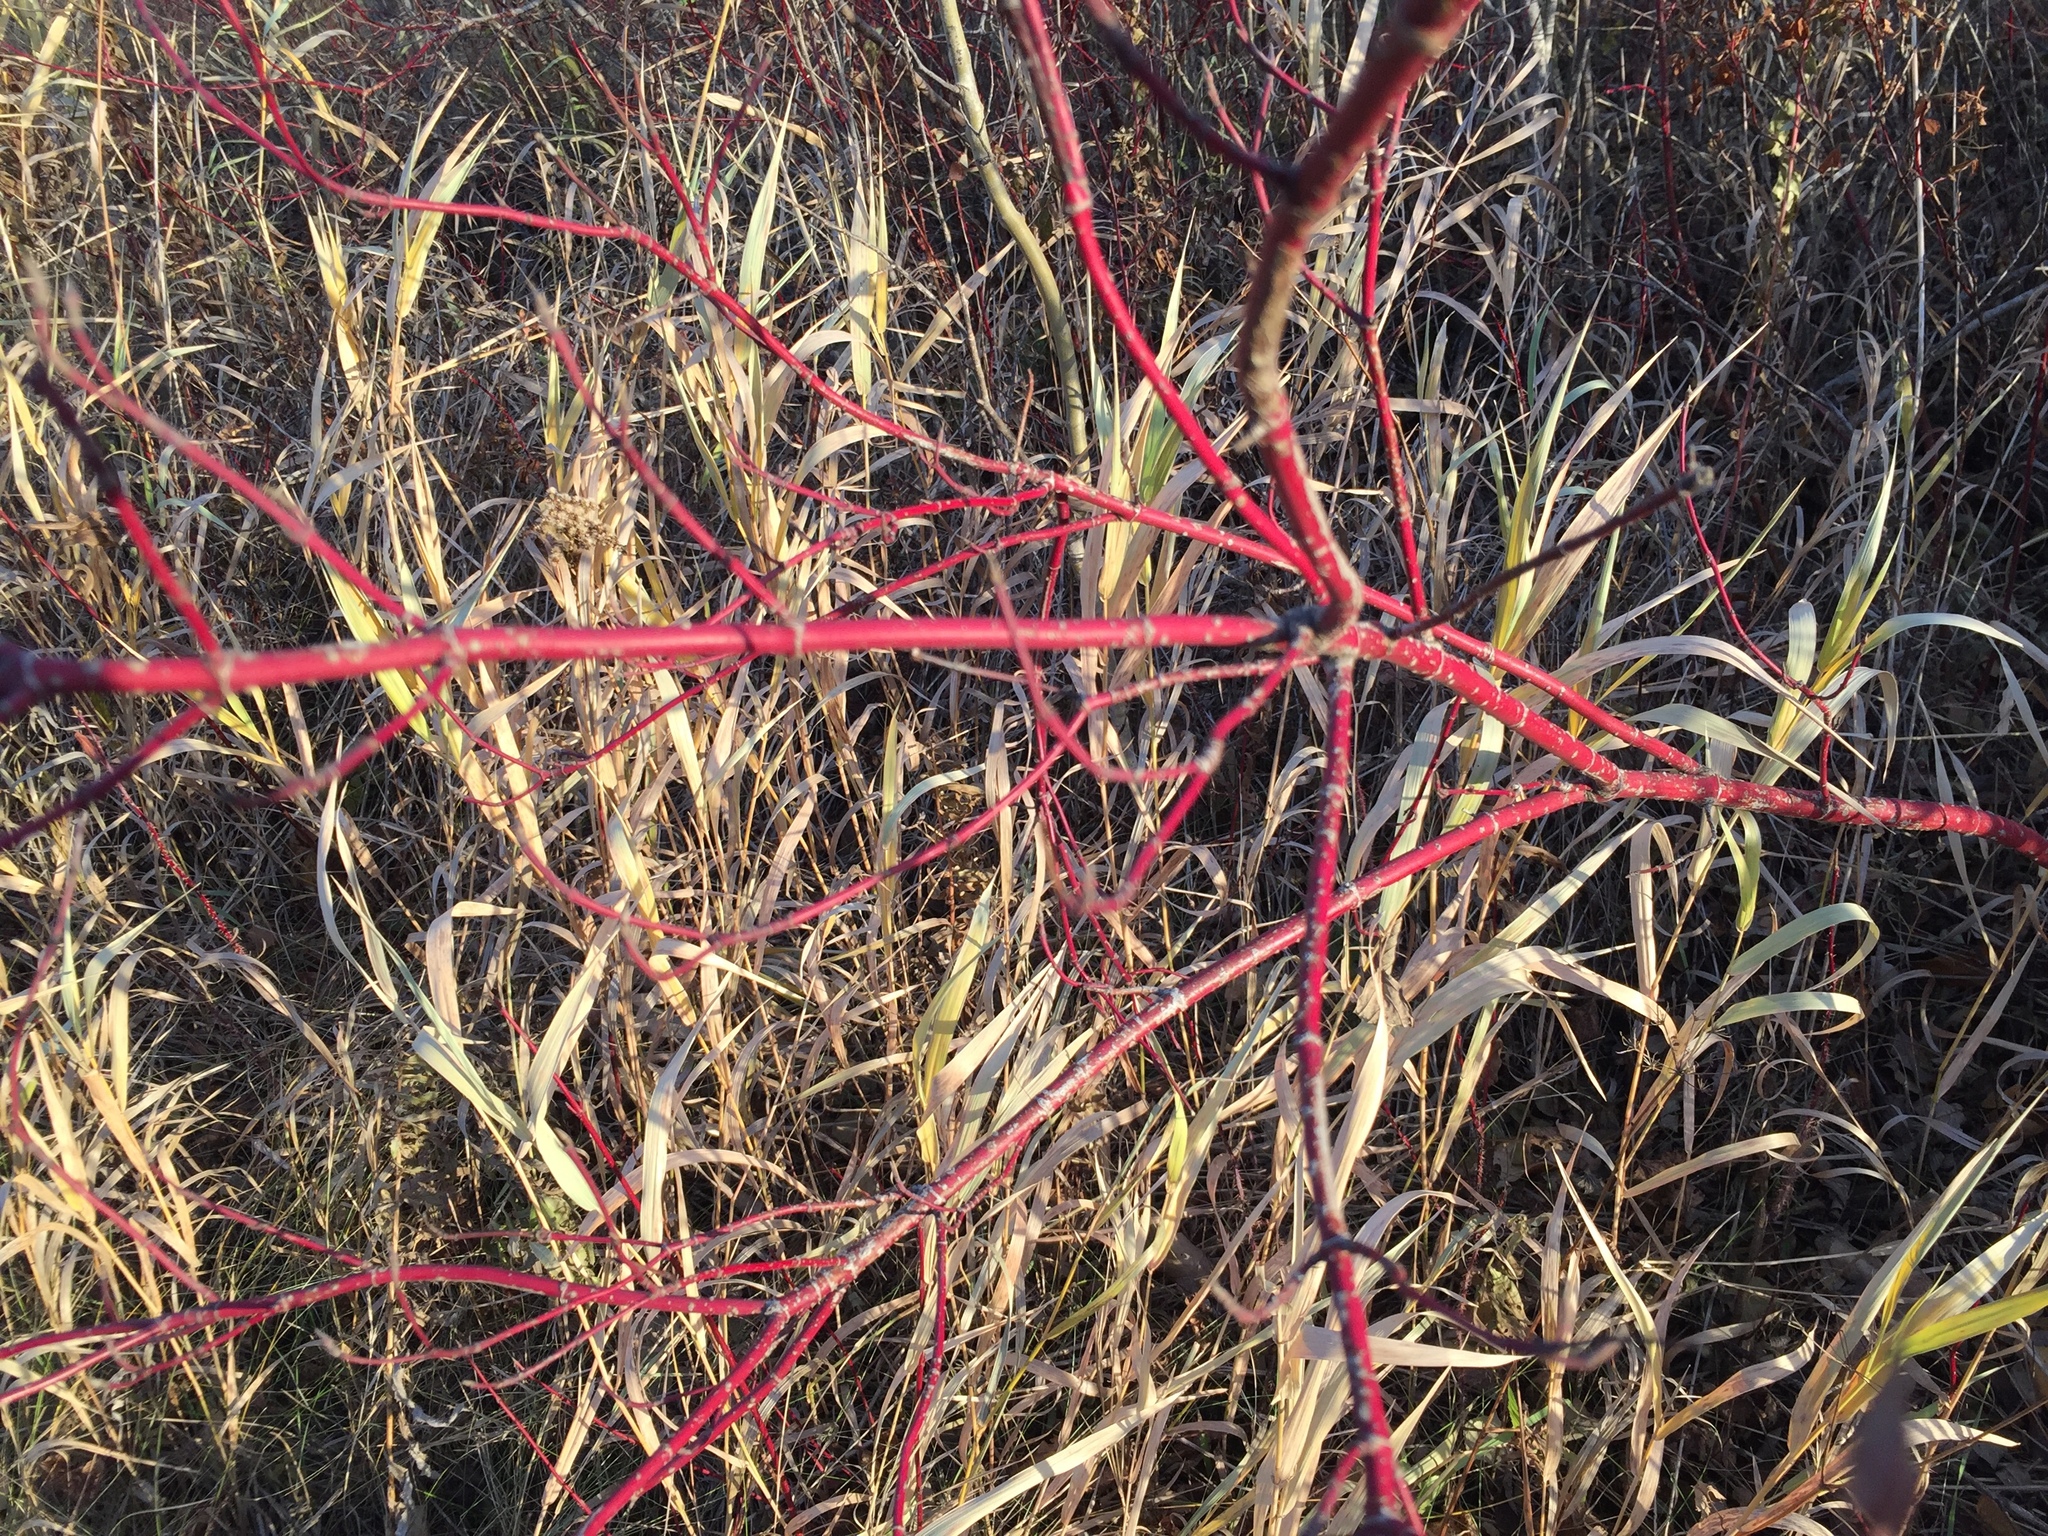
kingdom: Plantae
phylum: Tracheophyta
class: Magnoliopsida
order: Cornales
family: Cornaceae
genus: Cornus
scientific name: Cornus sericea
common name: Red-osier dogwood
